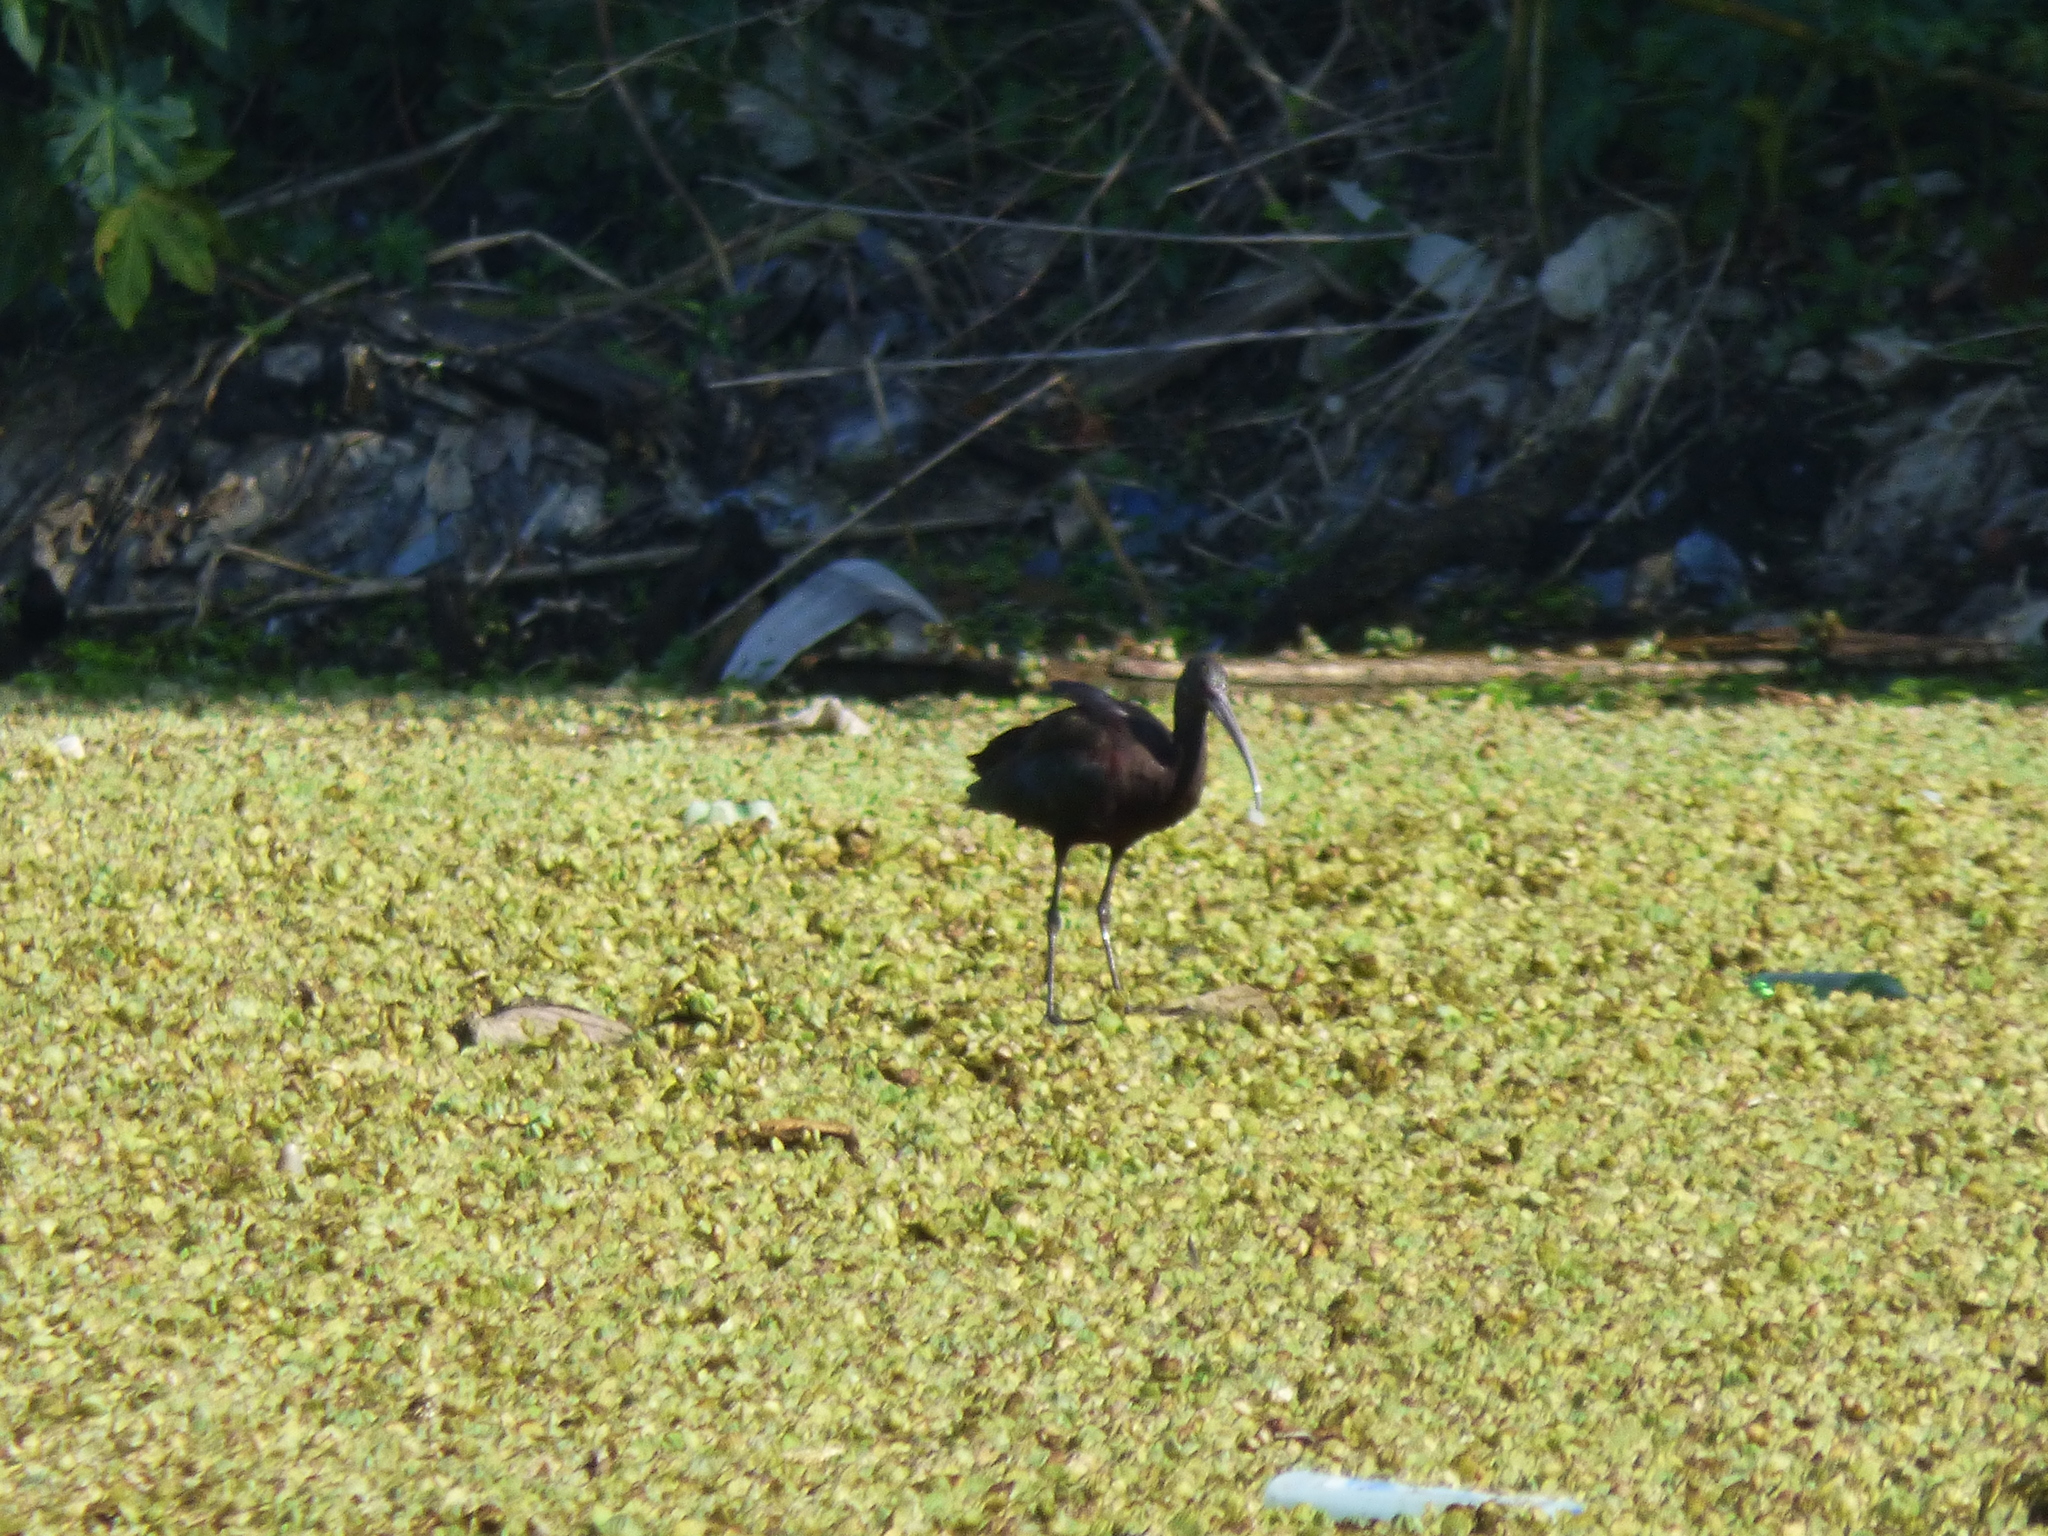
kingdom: Animalia
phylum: Chordata
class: Aves
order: Pelecaniformes
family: Threskiornithidae
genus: Plegadis
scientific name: Plegadis chihi
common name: White-faced ibis
